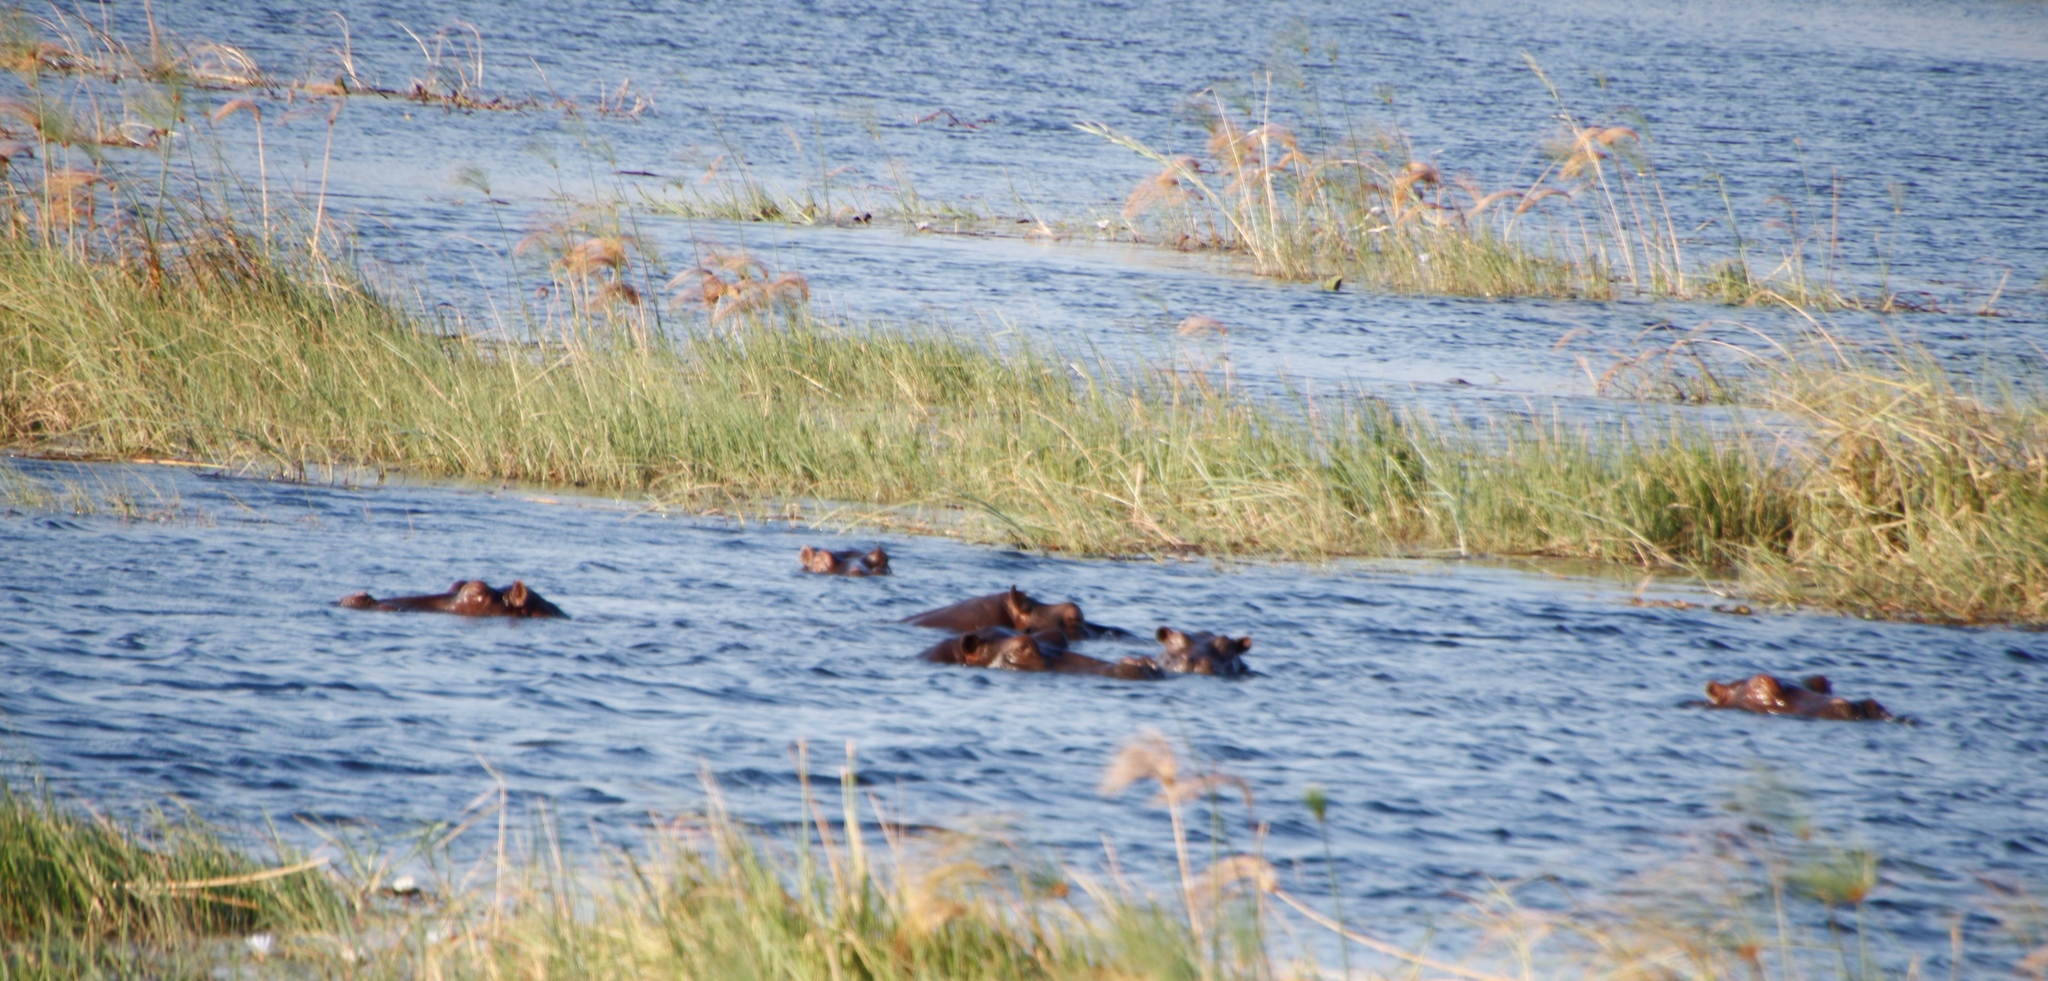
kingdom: Animalia
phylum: Chordata
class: Mammalia
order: Artiodactyla
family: Hippopotamidae
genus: Hippopotamus
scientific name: Hippopotamus amphibius
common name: Common hippopotamus
